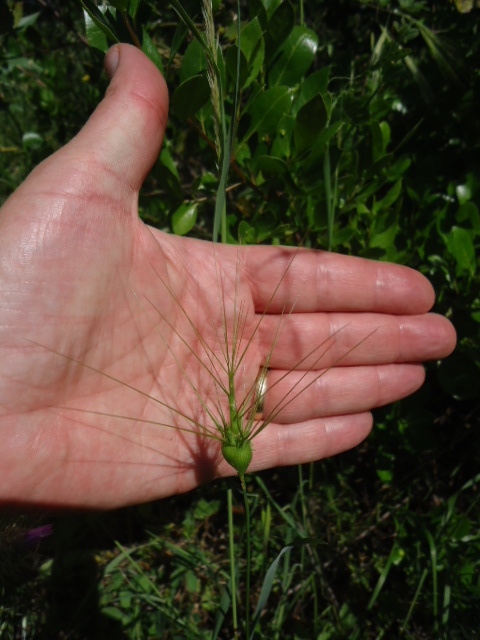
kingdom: Plantae
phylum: Tracheophyta
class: Liliopsida
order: Poales
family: Poaceae
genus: Aegilops
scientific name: Aegilops neglecta
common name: Three-awn goat grass
